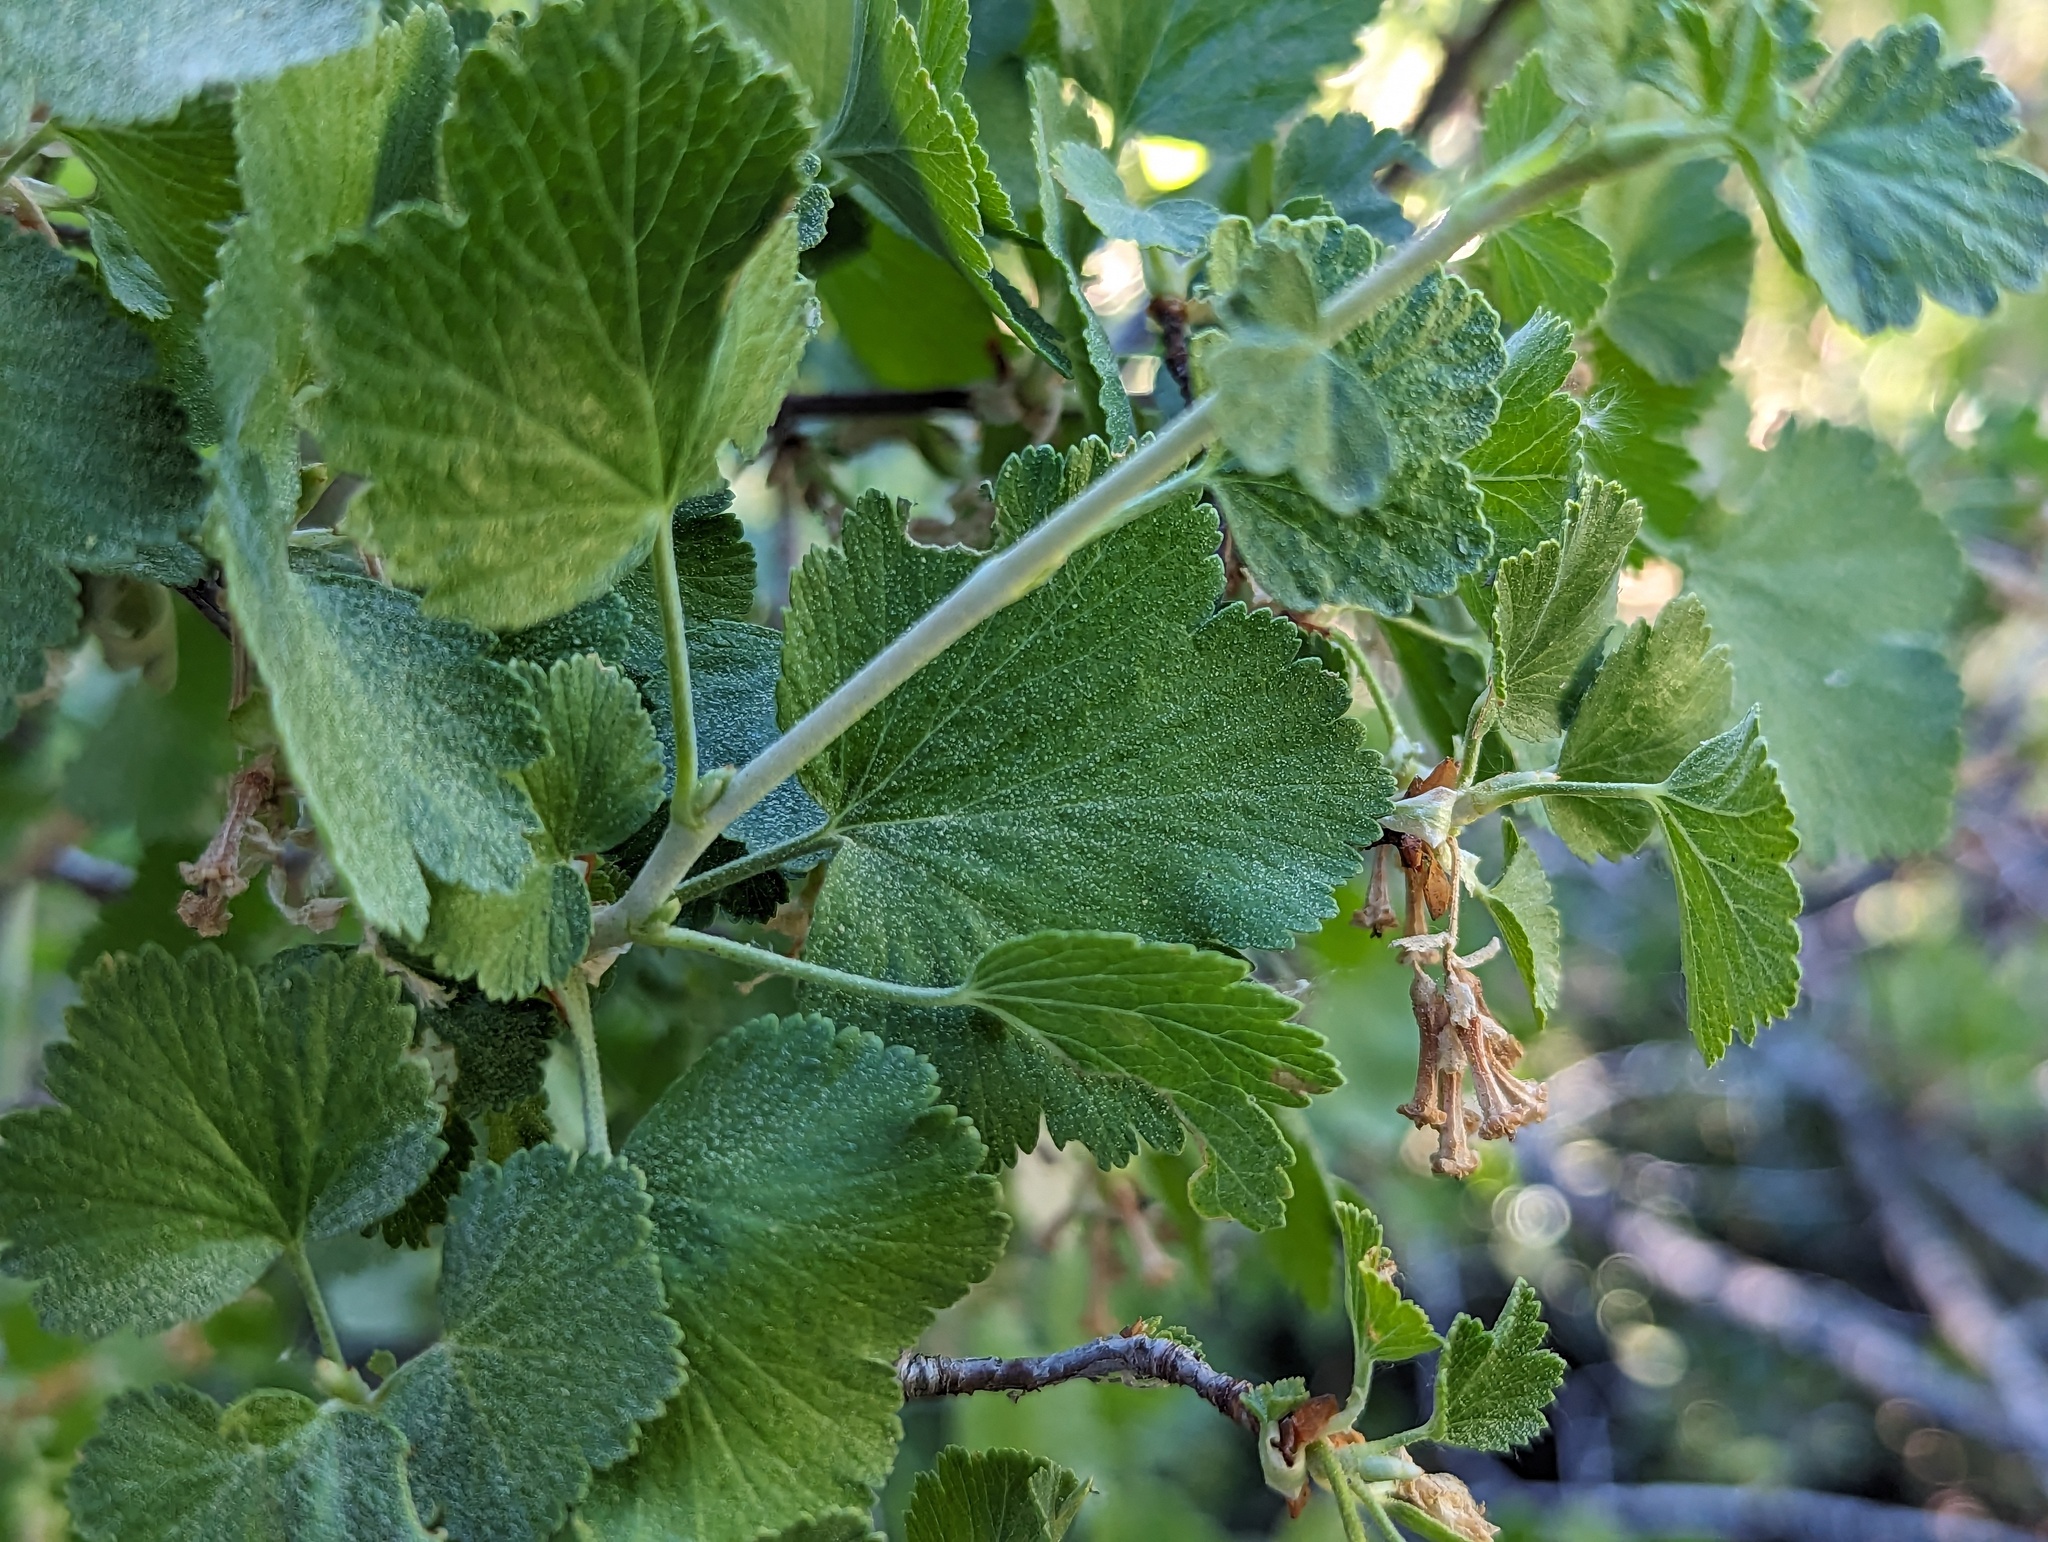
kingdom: Plantae
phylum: Tracheophyta
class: Magnoliopsida
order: Saxifragales
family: Grossulariaceae
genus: Ribes
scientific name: Ribes cereum
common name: Wax currant
